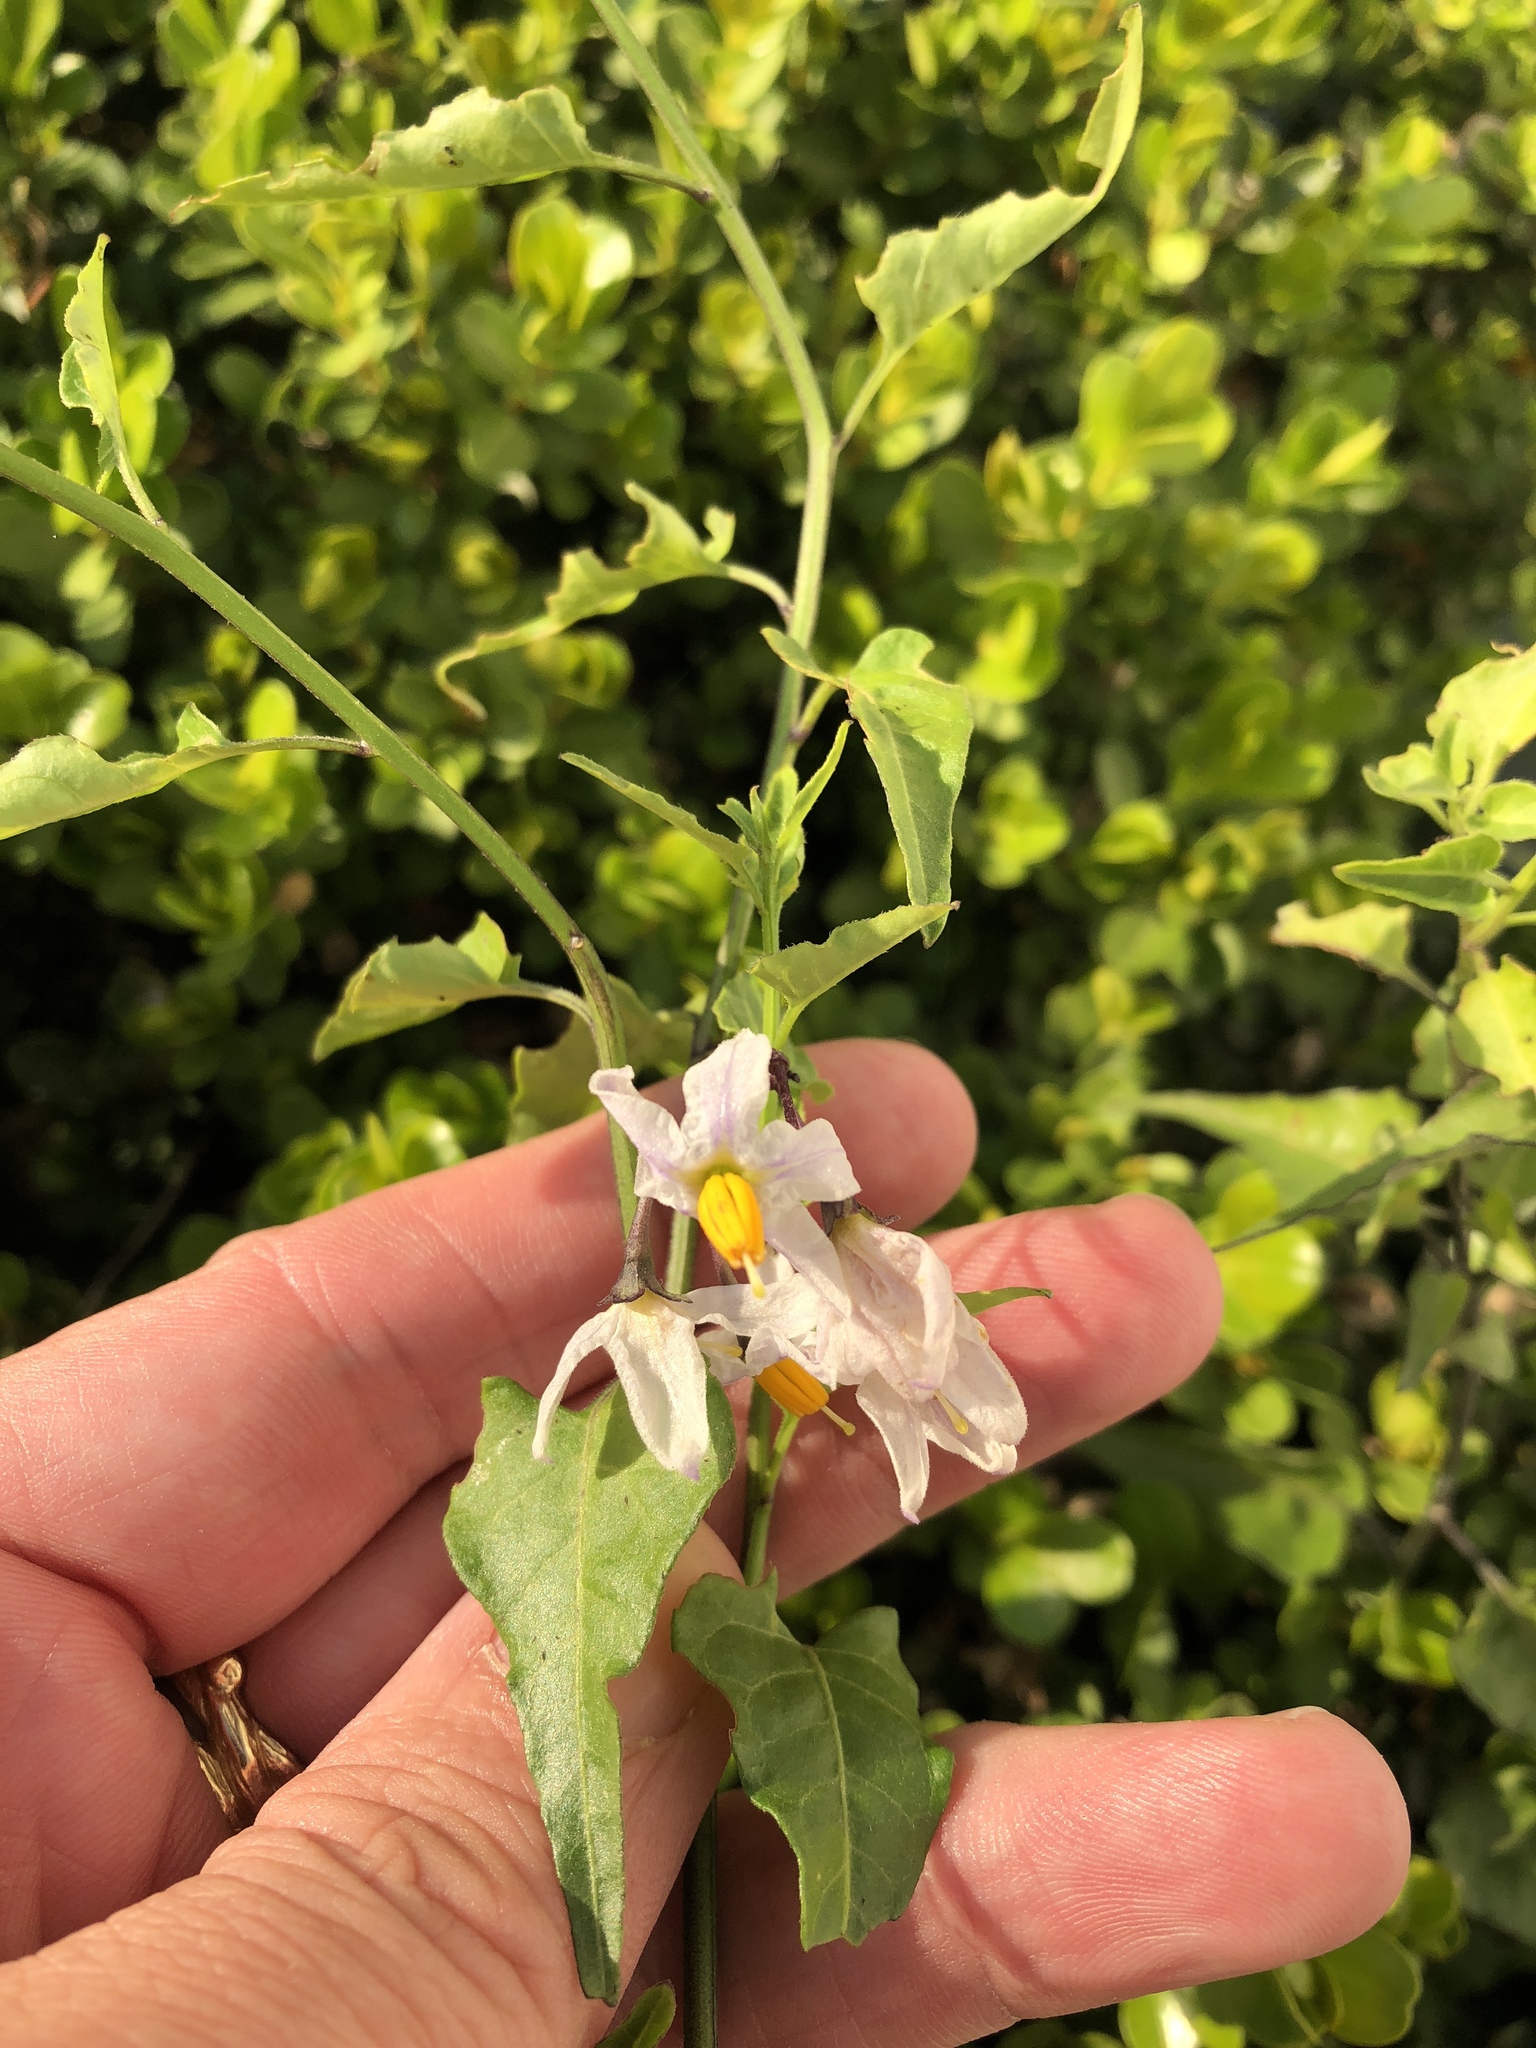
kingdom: Plantae
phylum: Tracheophyta
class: Magnoliopsida
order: Solanales
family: Solanaceae
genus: Solanum
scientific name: Solanum triquetrum
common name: Texas nightshade
